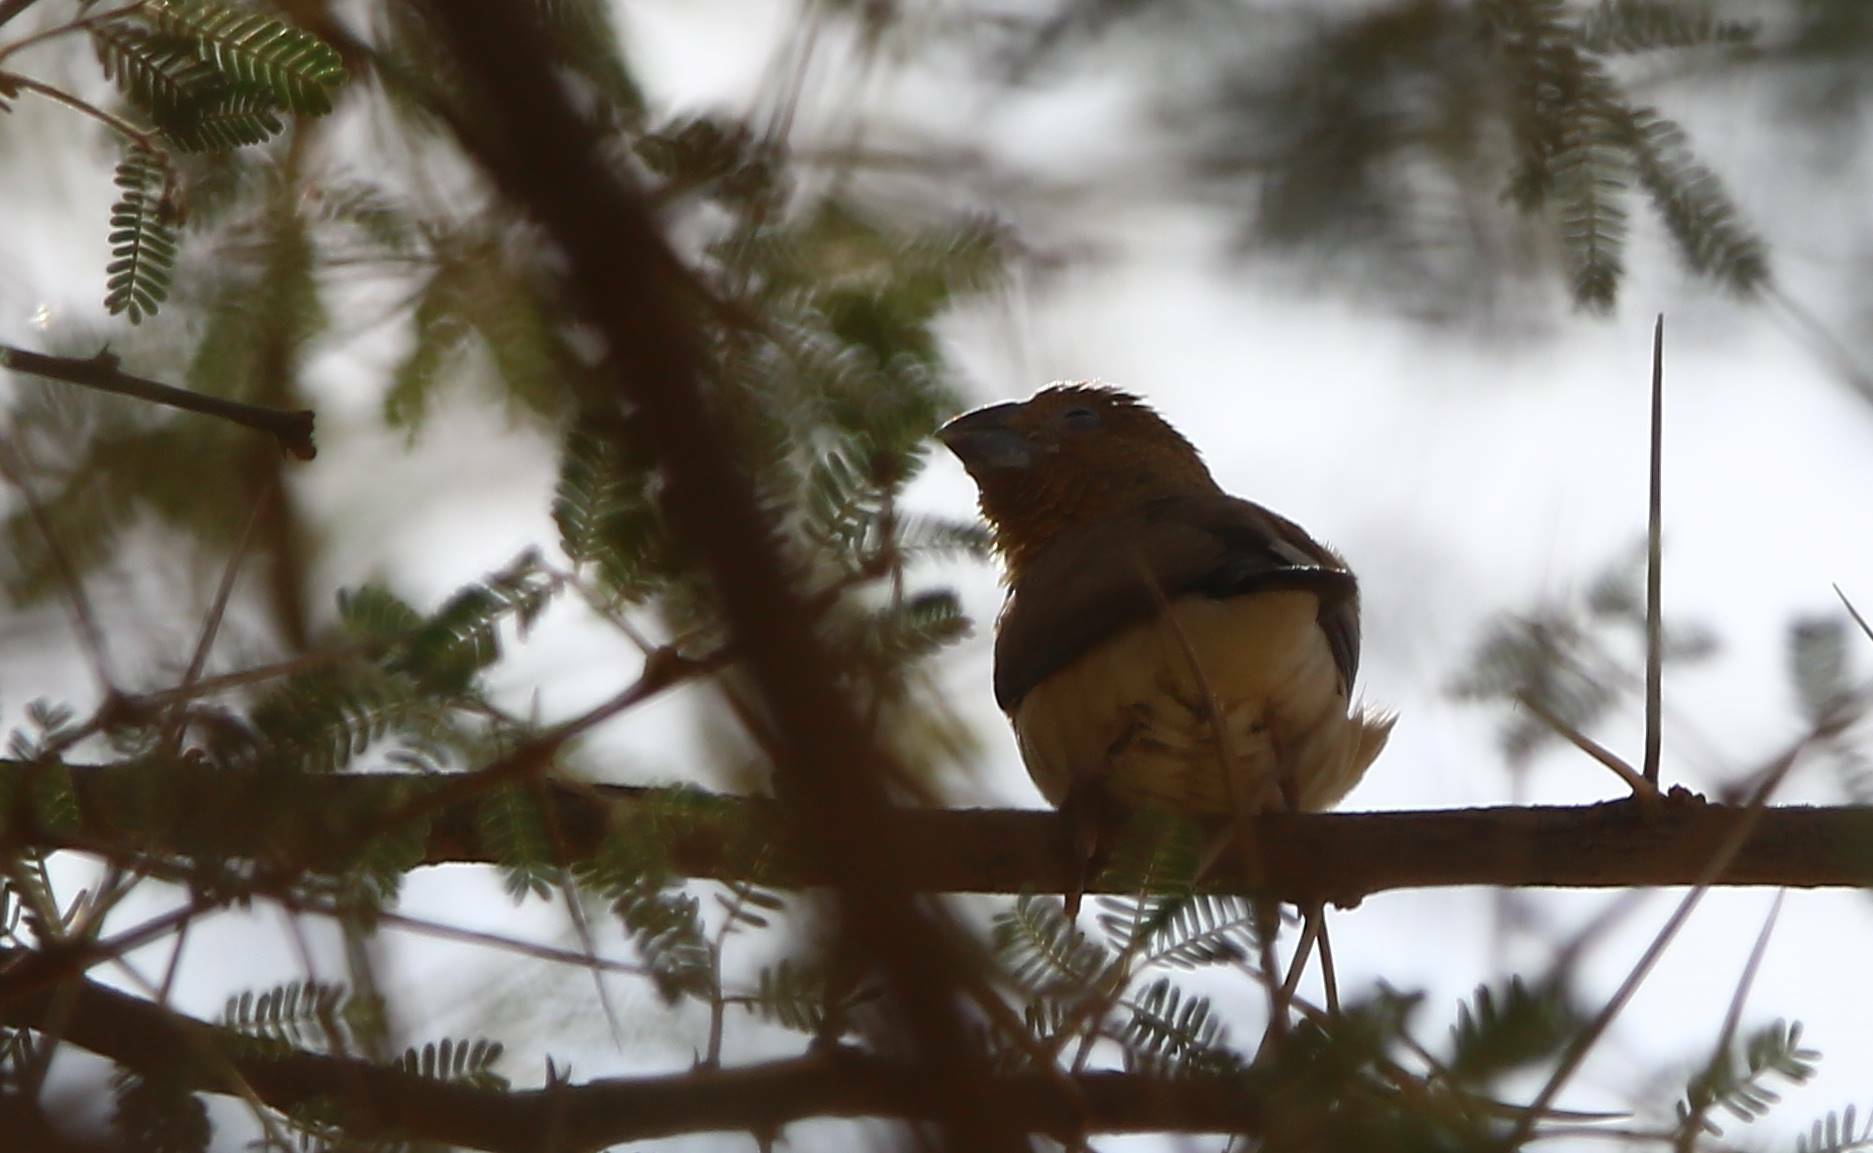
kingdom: Animalia
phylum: Chordata
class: Aves
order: Passeriformes
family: Estrildidae
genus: Euodice
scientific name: Euodice cantans
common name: African silverbill
